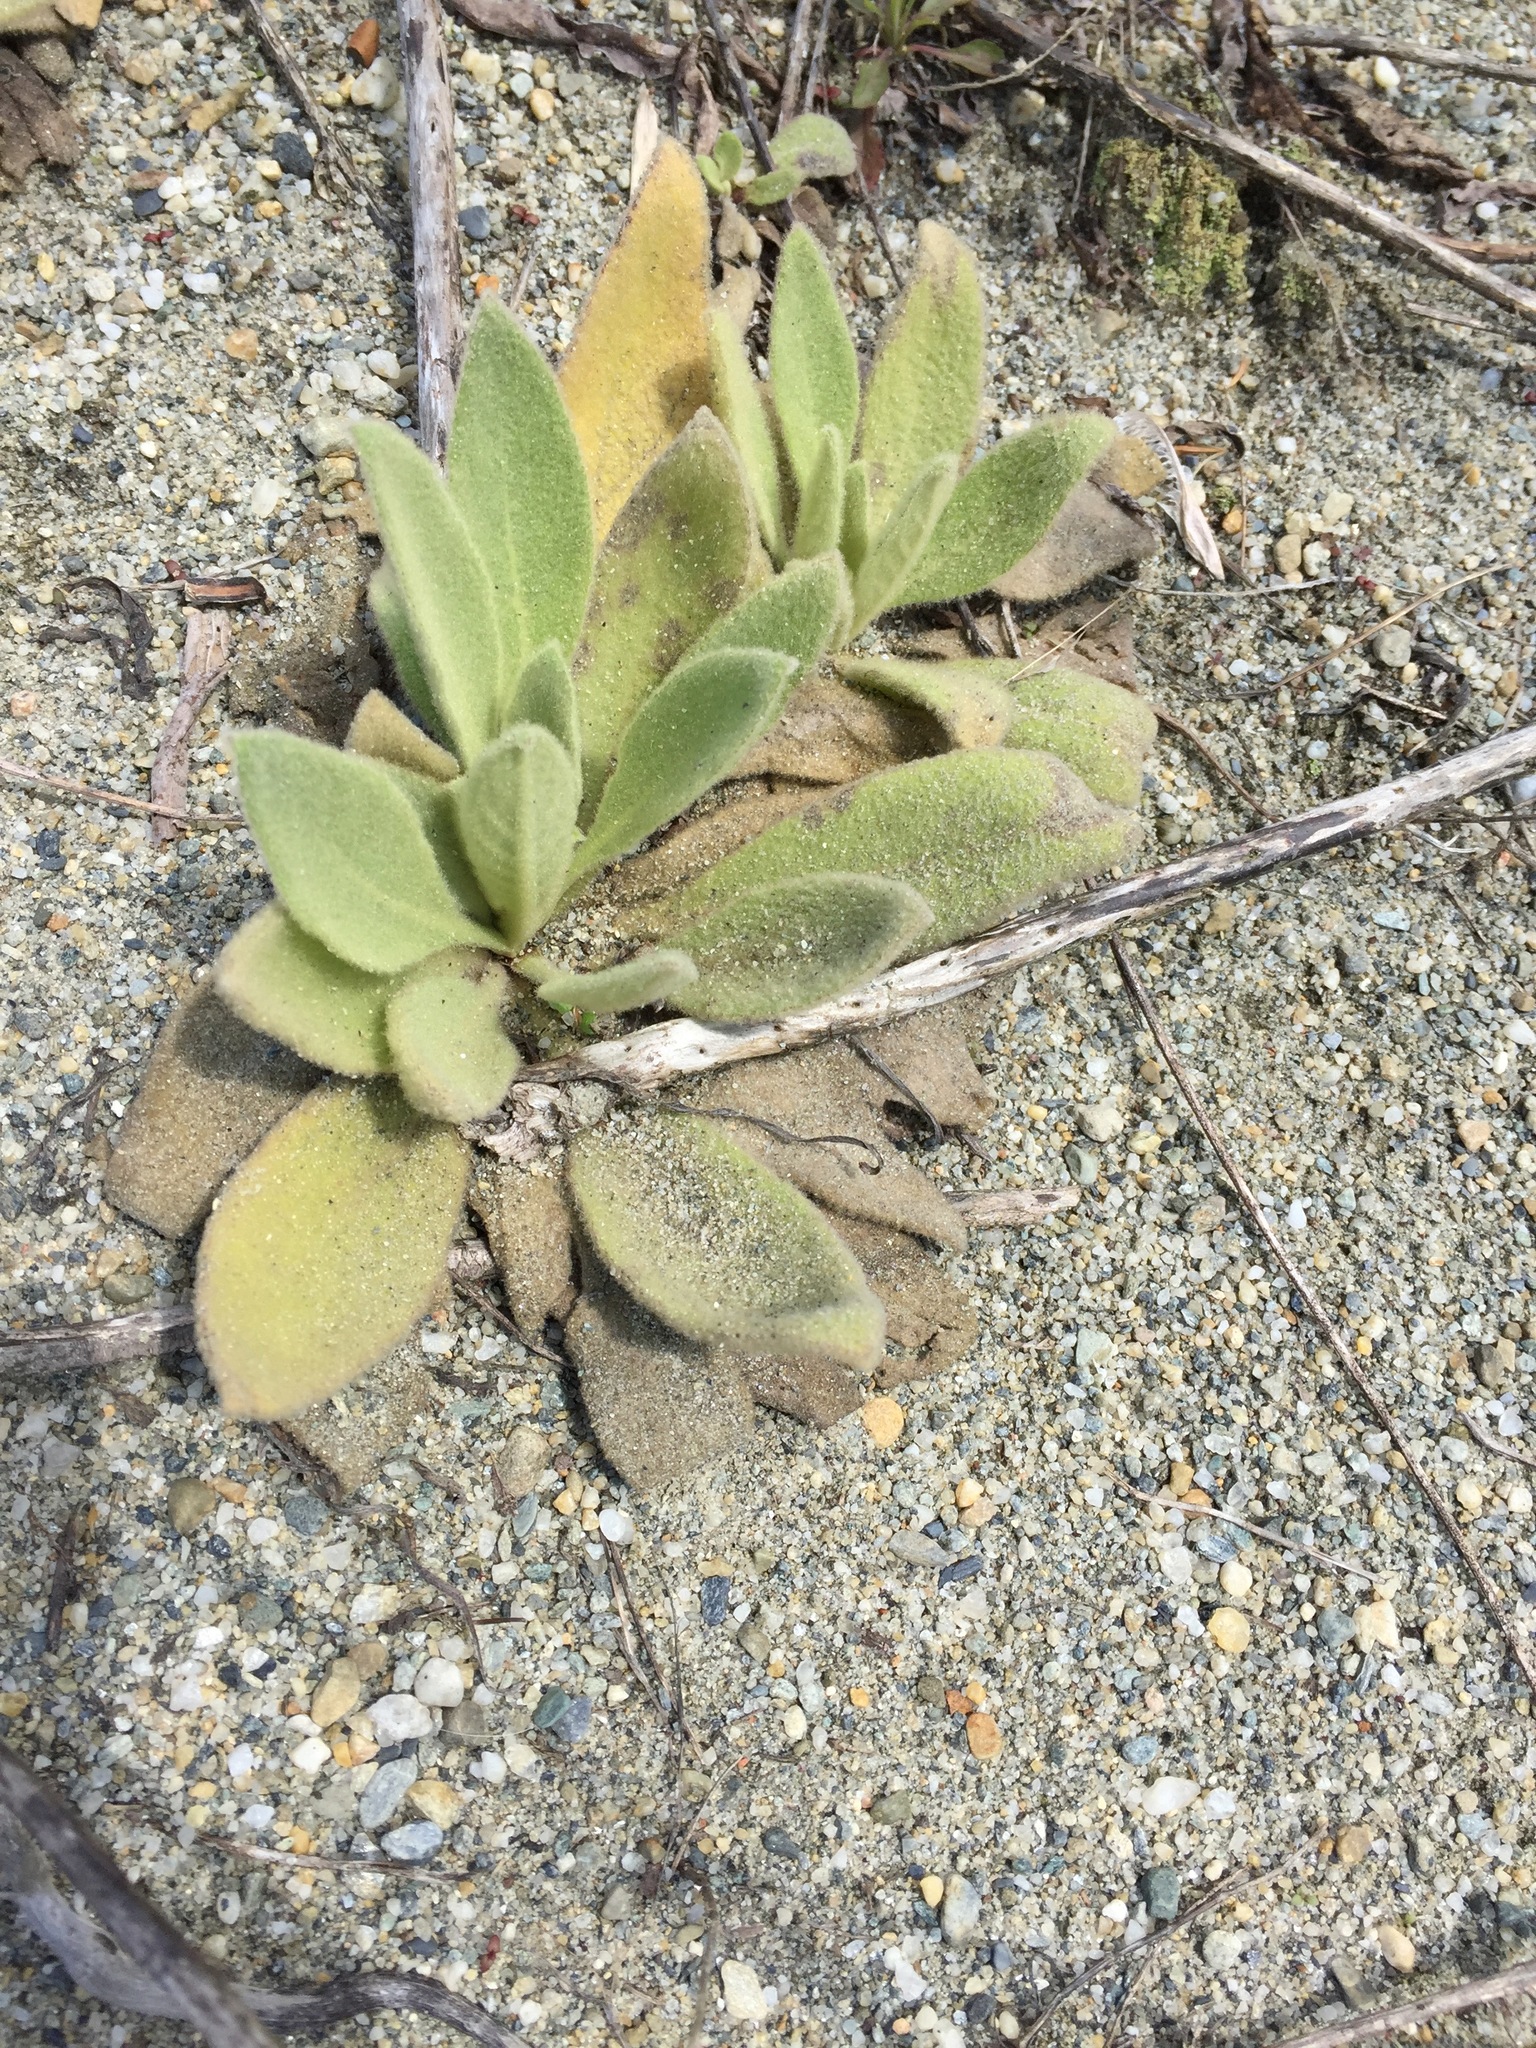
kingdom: Plantae
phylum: Tracheophyta
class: Magnoliopsida
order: Lamiales
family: Scrophulariaceae
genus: Verbascum
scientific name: Verbascum thapsus
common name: Common mullein
